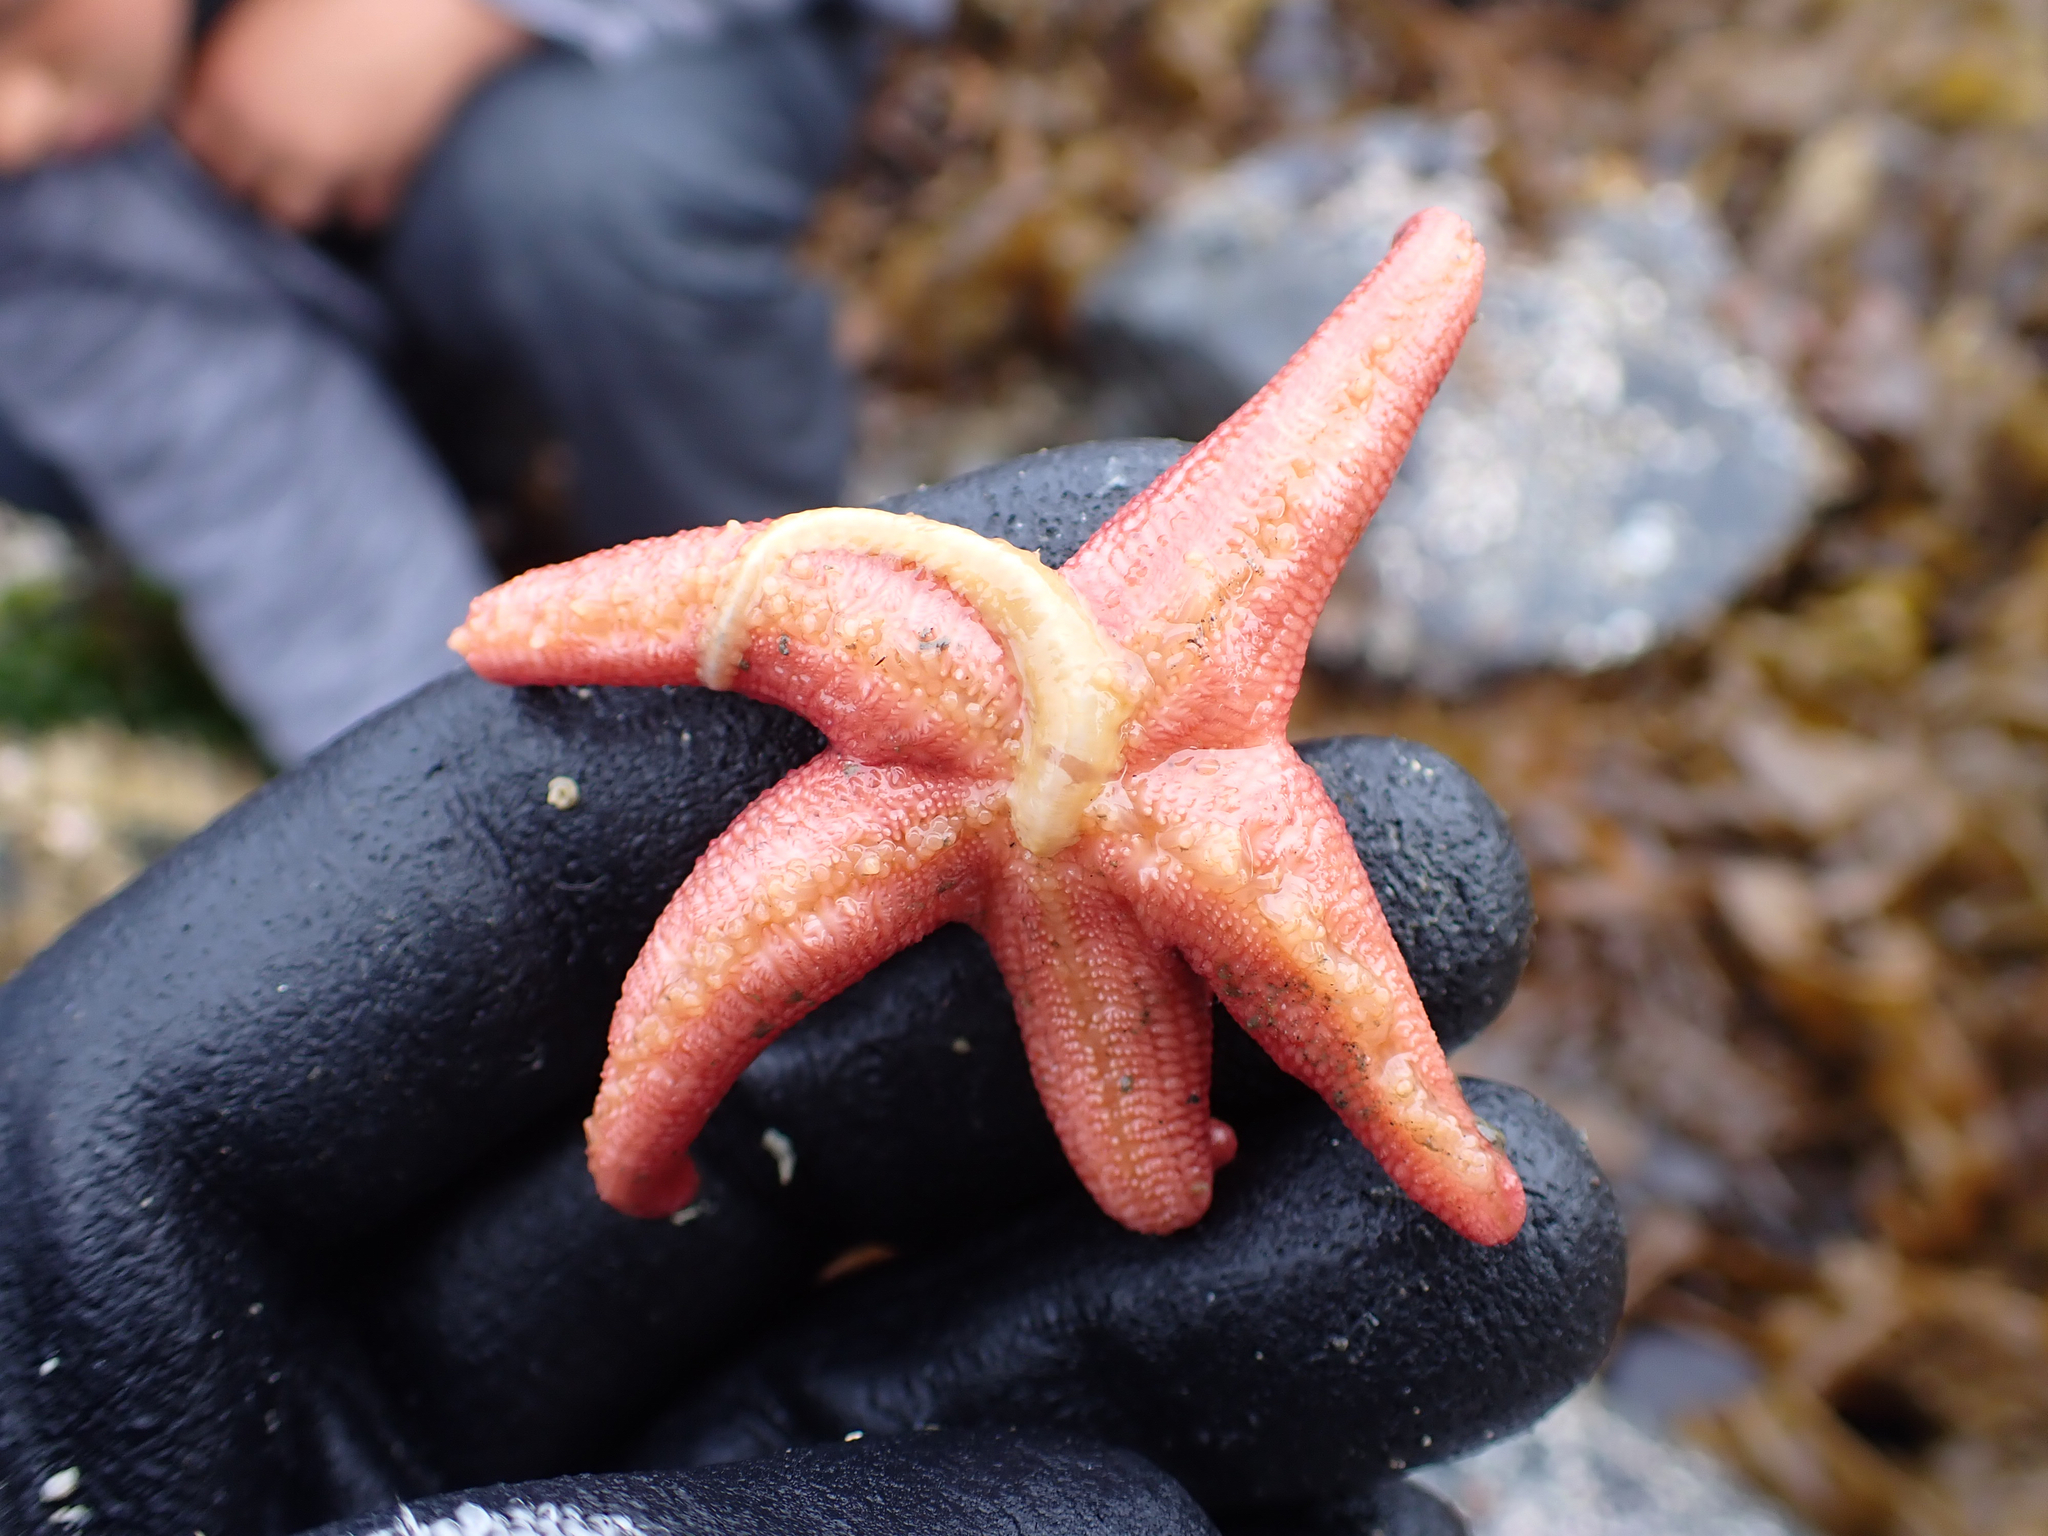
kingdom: Animalia
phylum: Annelida
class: Polychaeta
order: Phyllodocida
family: Polynoidae
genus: Arctonoe
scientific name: Arctonoe vittata
